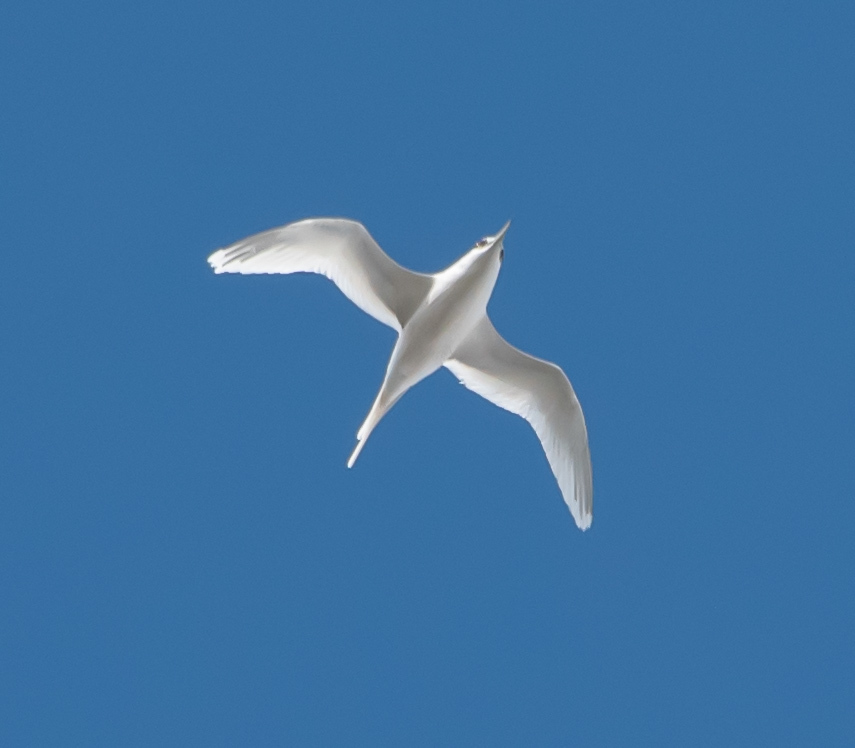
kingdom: Animalia
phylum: Chordata
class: Aves
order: Phaethontiformes
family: Phaethontidae
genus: Phaethon
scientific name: Phaethon lepturus
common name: White-tailed tropicbird
